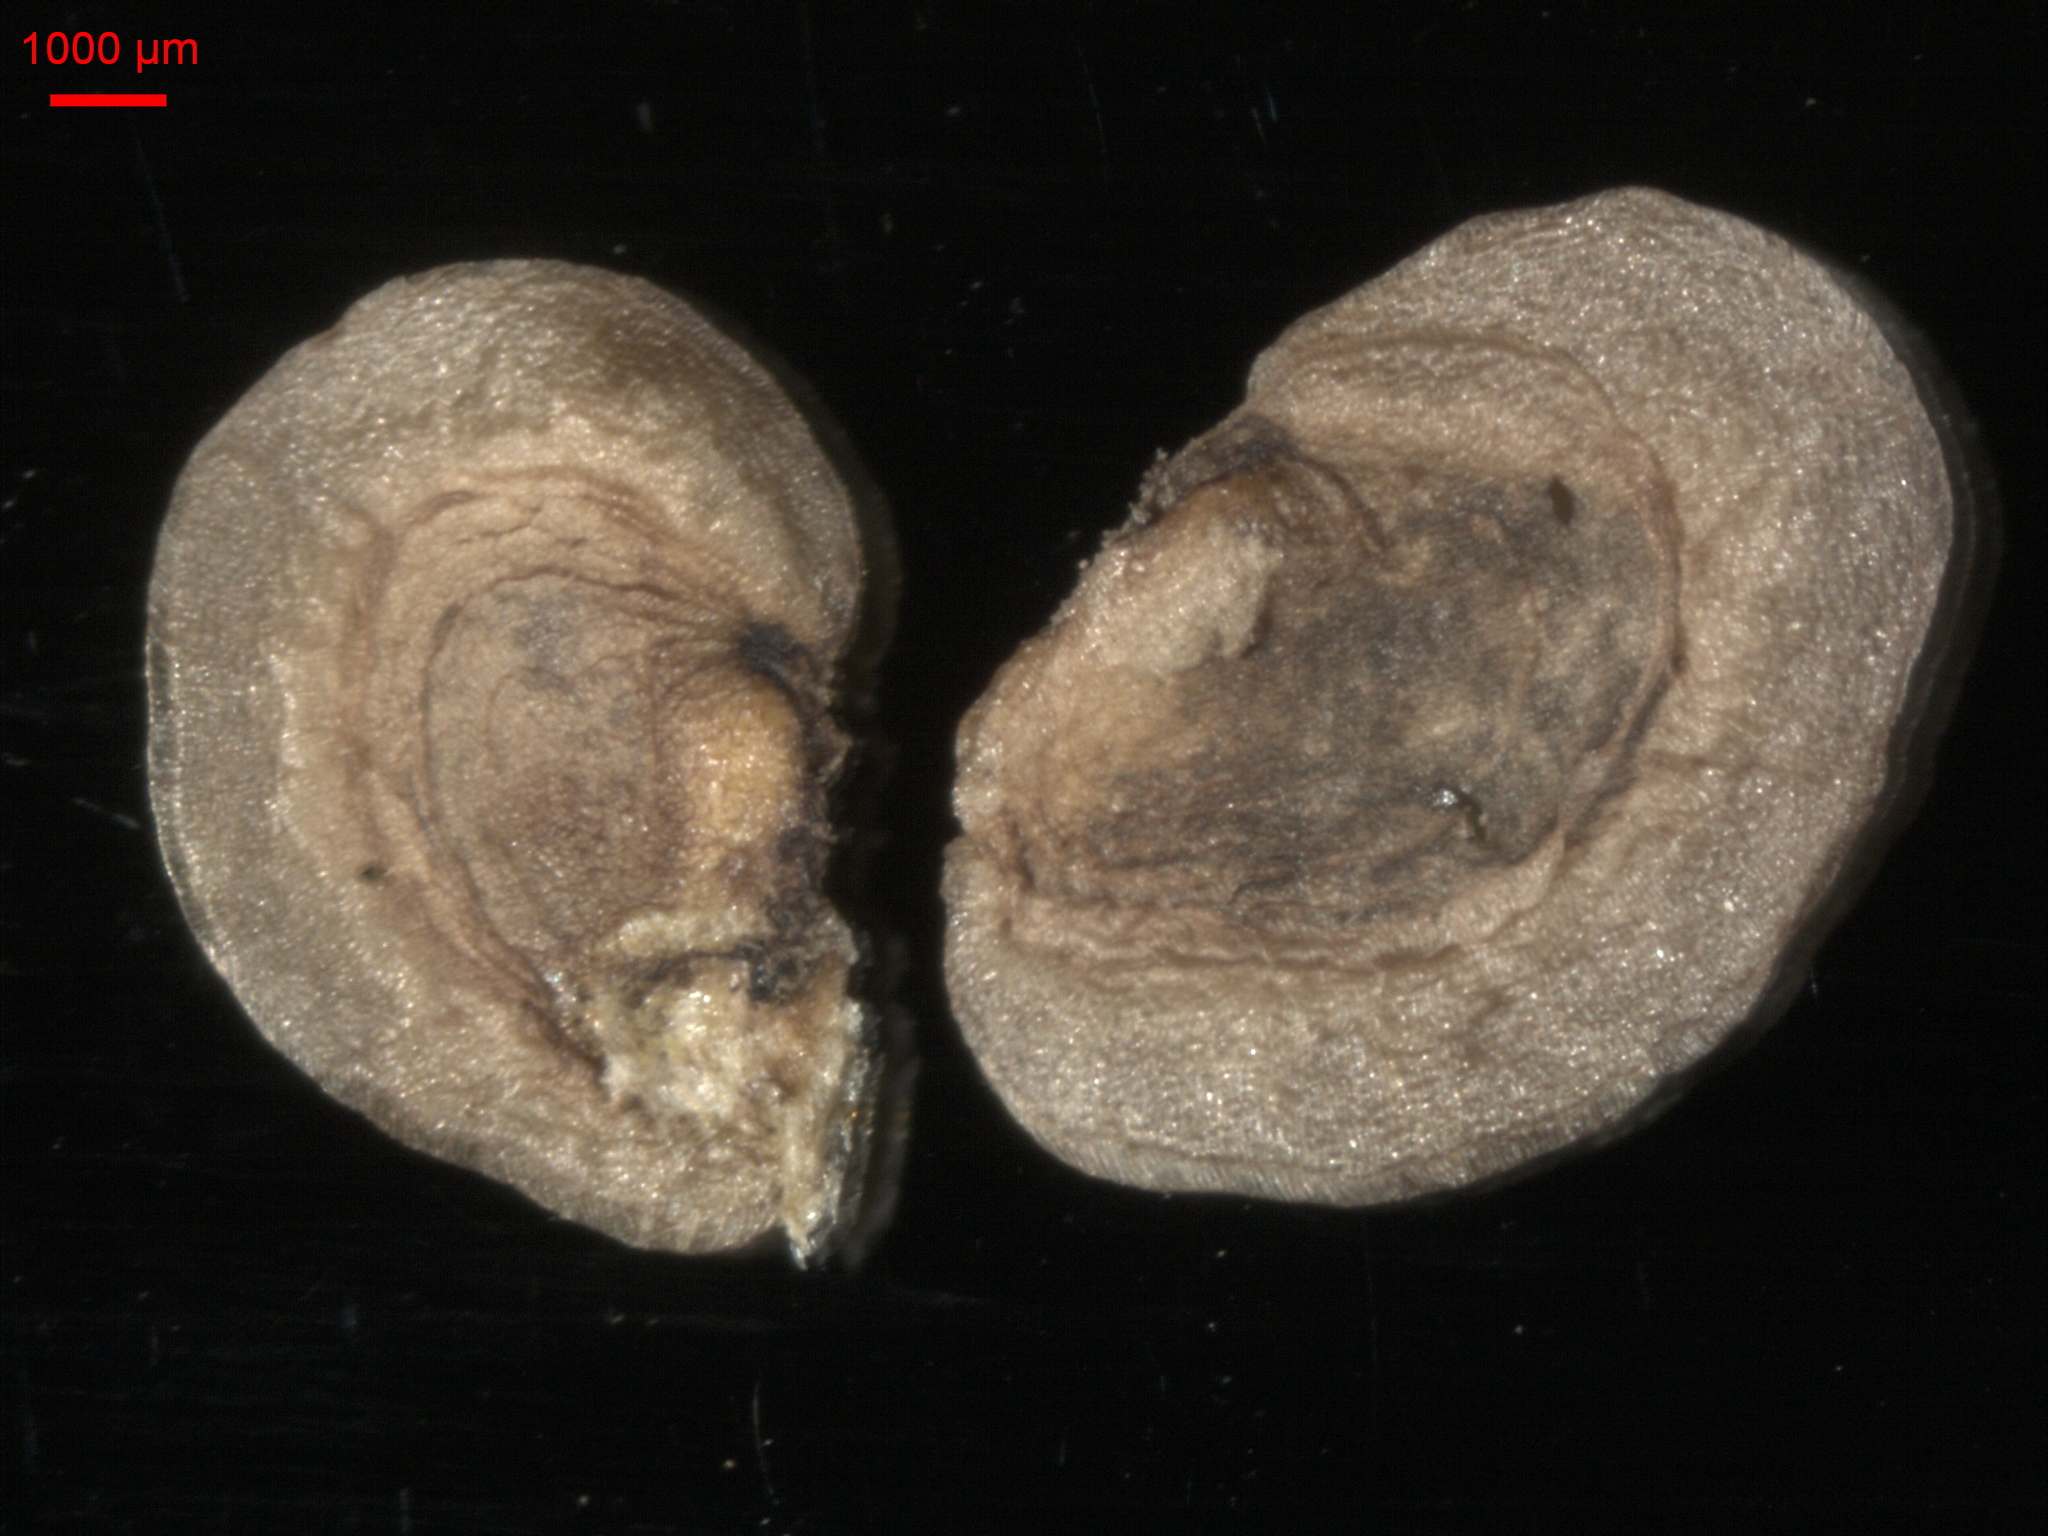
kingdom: Plantae
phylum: Tracheophyta
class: Magnoliopsida
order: Lamiales
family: Orobanchaceae
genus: Rhinanthus
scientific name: Rhinanthus serotinus
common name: Late-flowering yellow rattle
